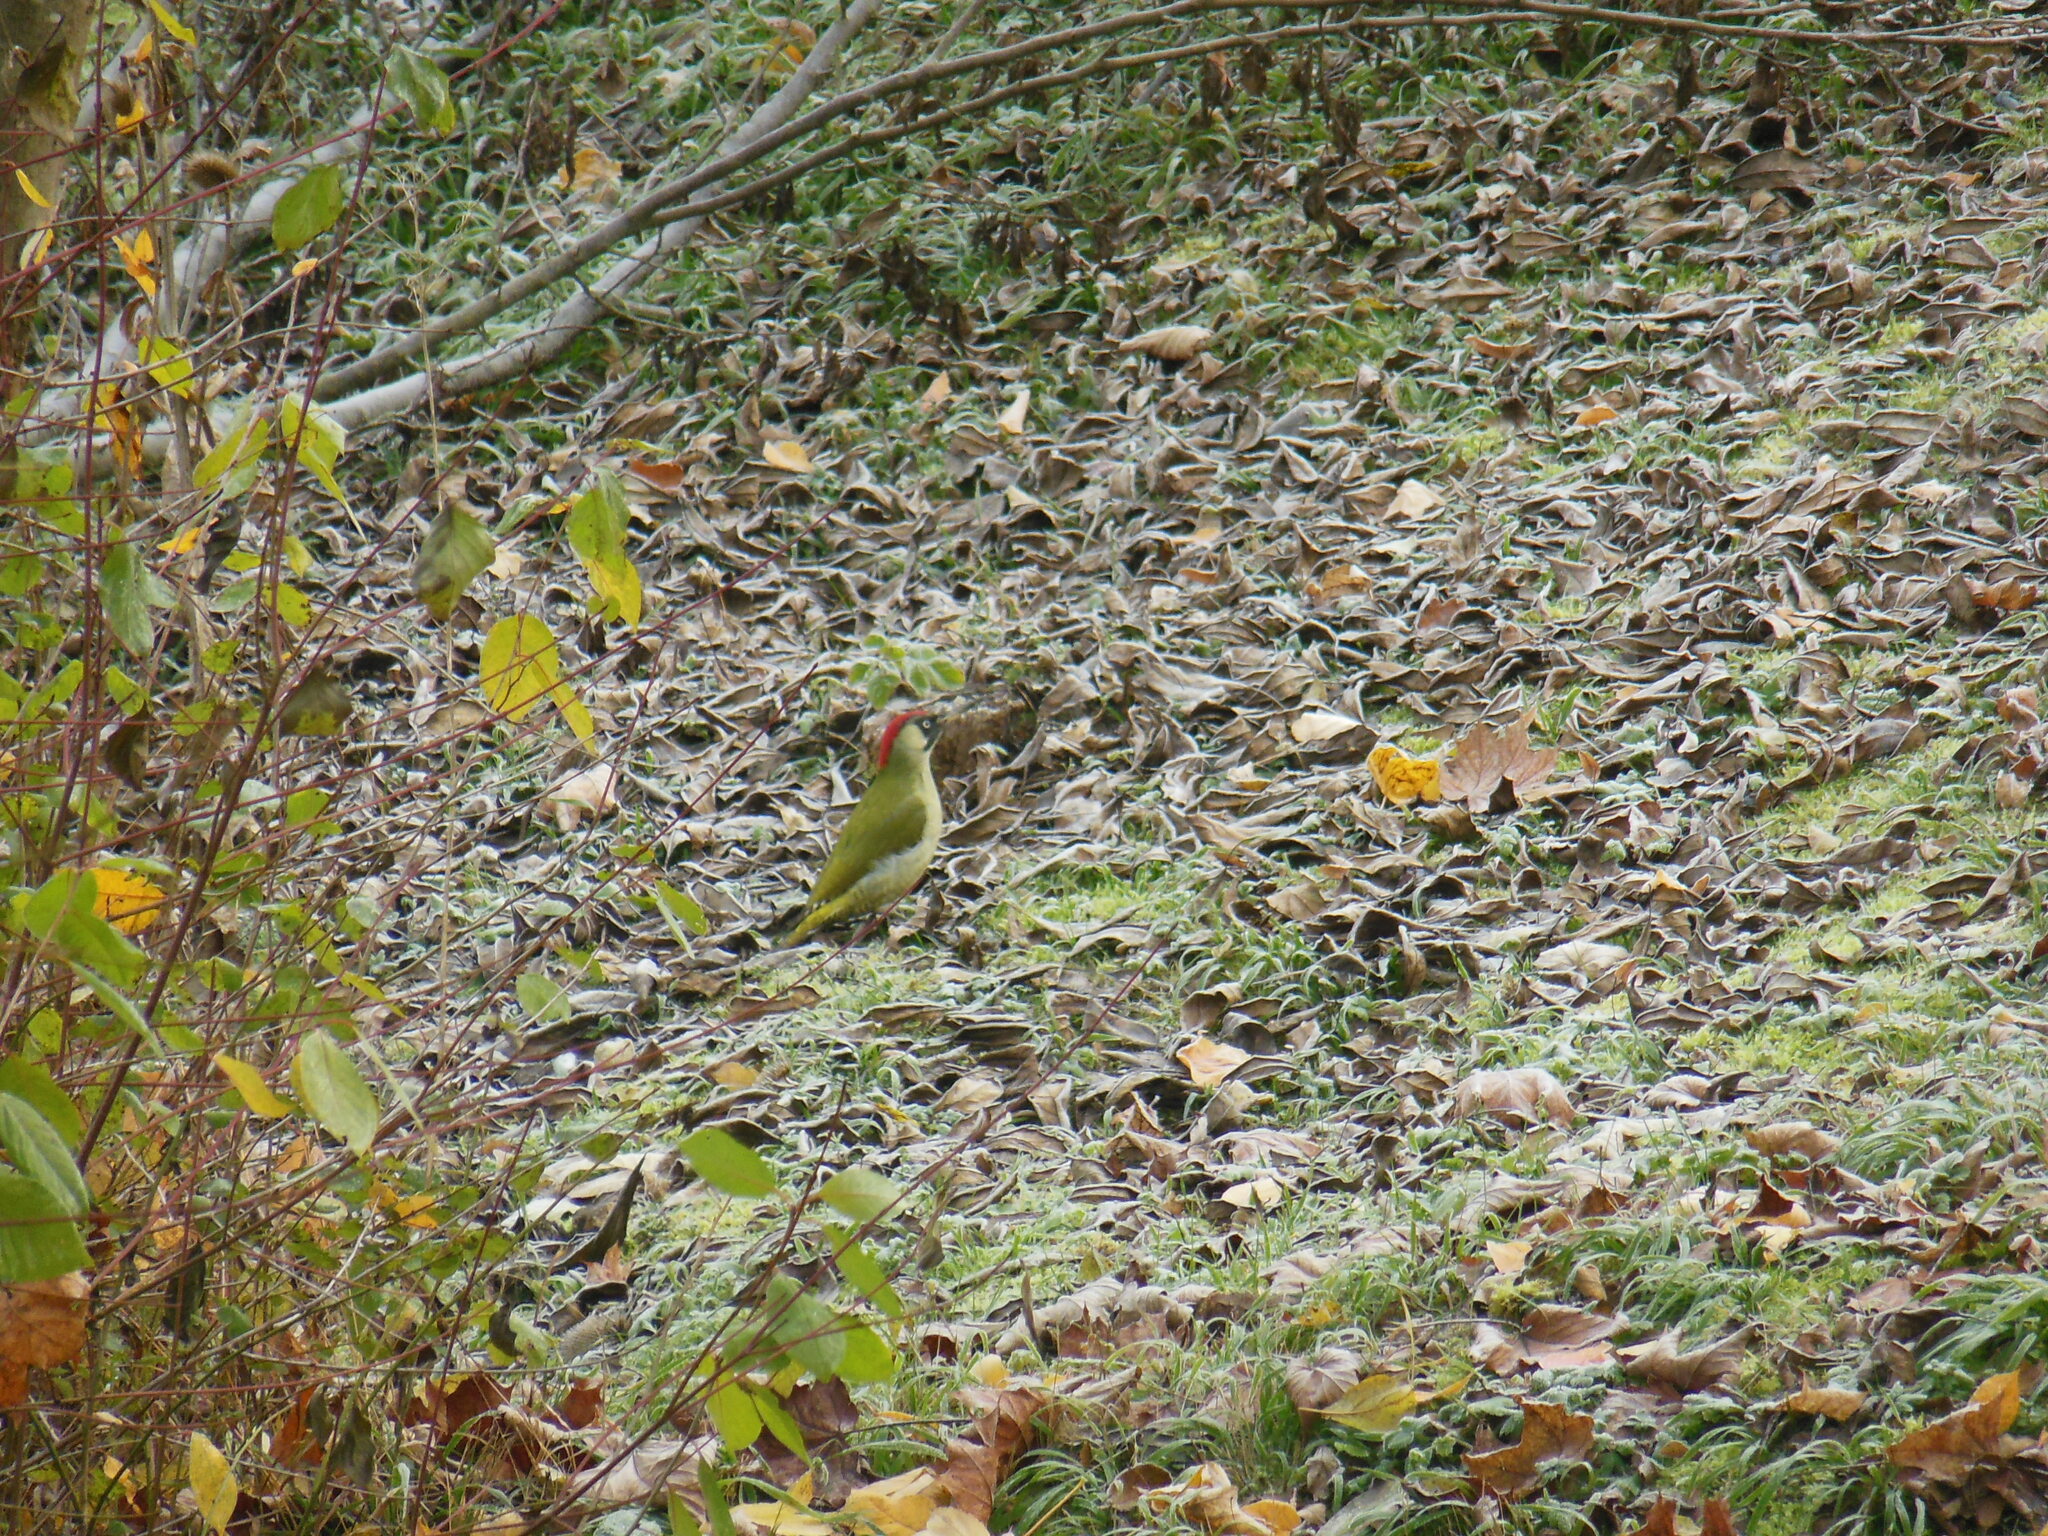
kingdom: Animalia
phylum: Chordata
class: Aves
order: Piciformes
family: Picidae
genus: Picus
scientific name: Picus viridis
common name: European green woodpecker
